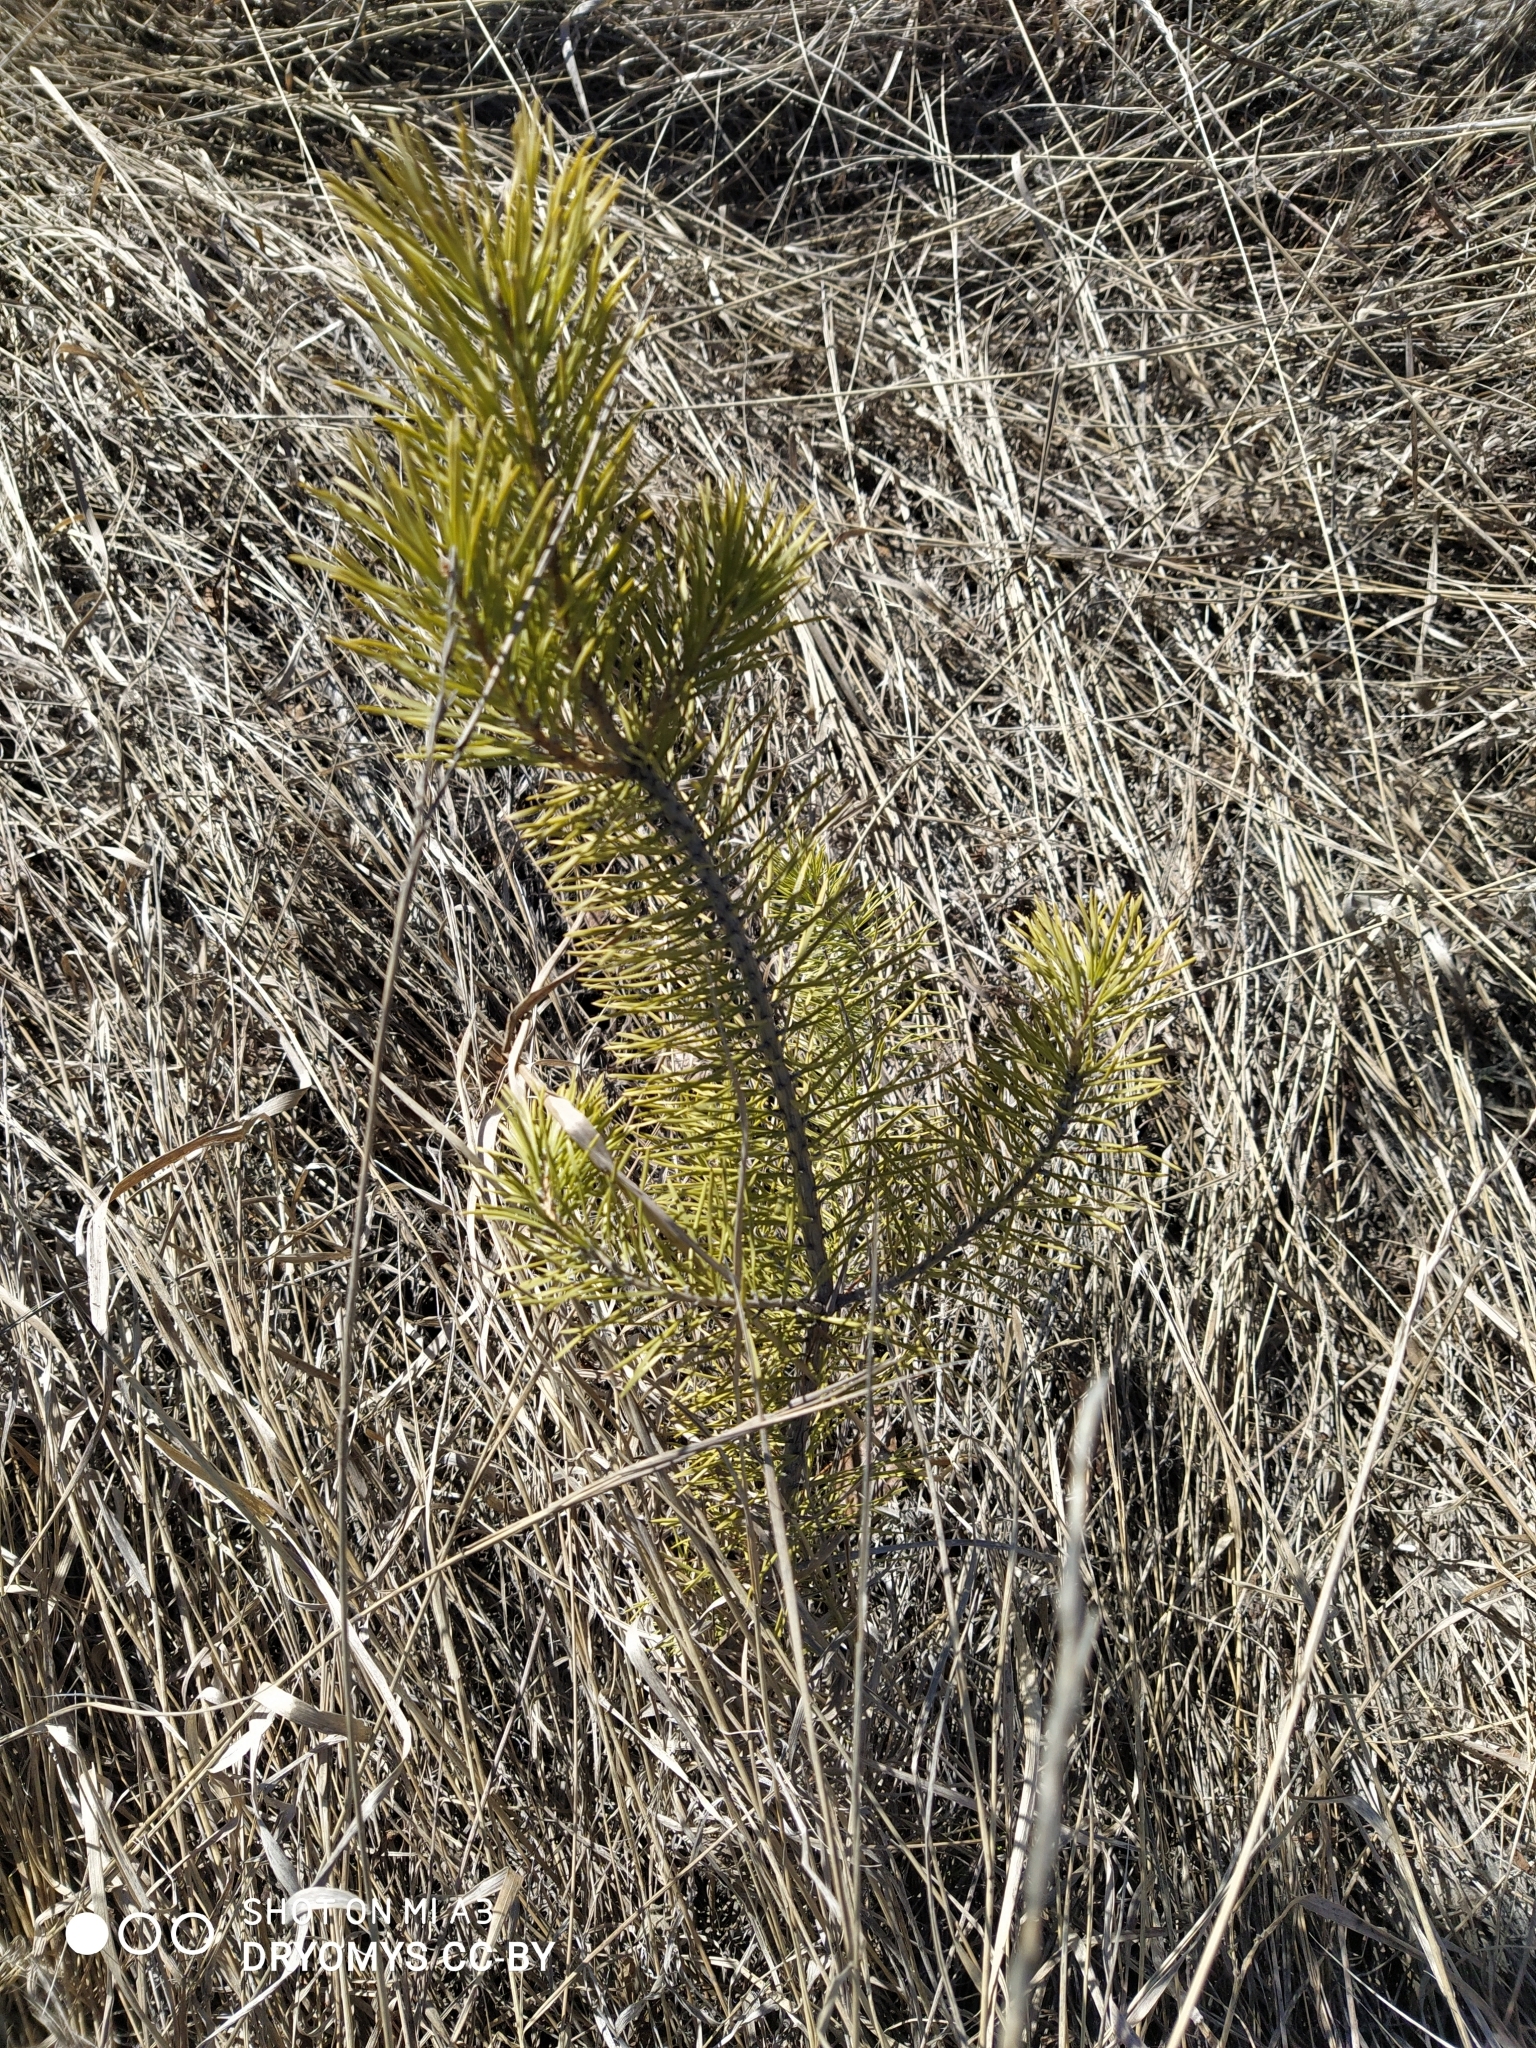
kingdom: Plantae
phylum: Tracheophyta
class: Pinopsida
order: Pinales
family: Pinaceae
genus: Pinus
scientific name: Pinus sylvestris
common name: Scots pine
